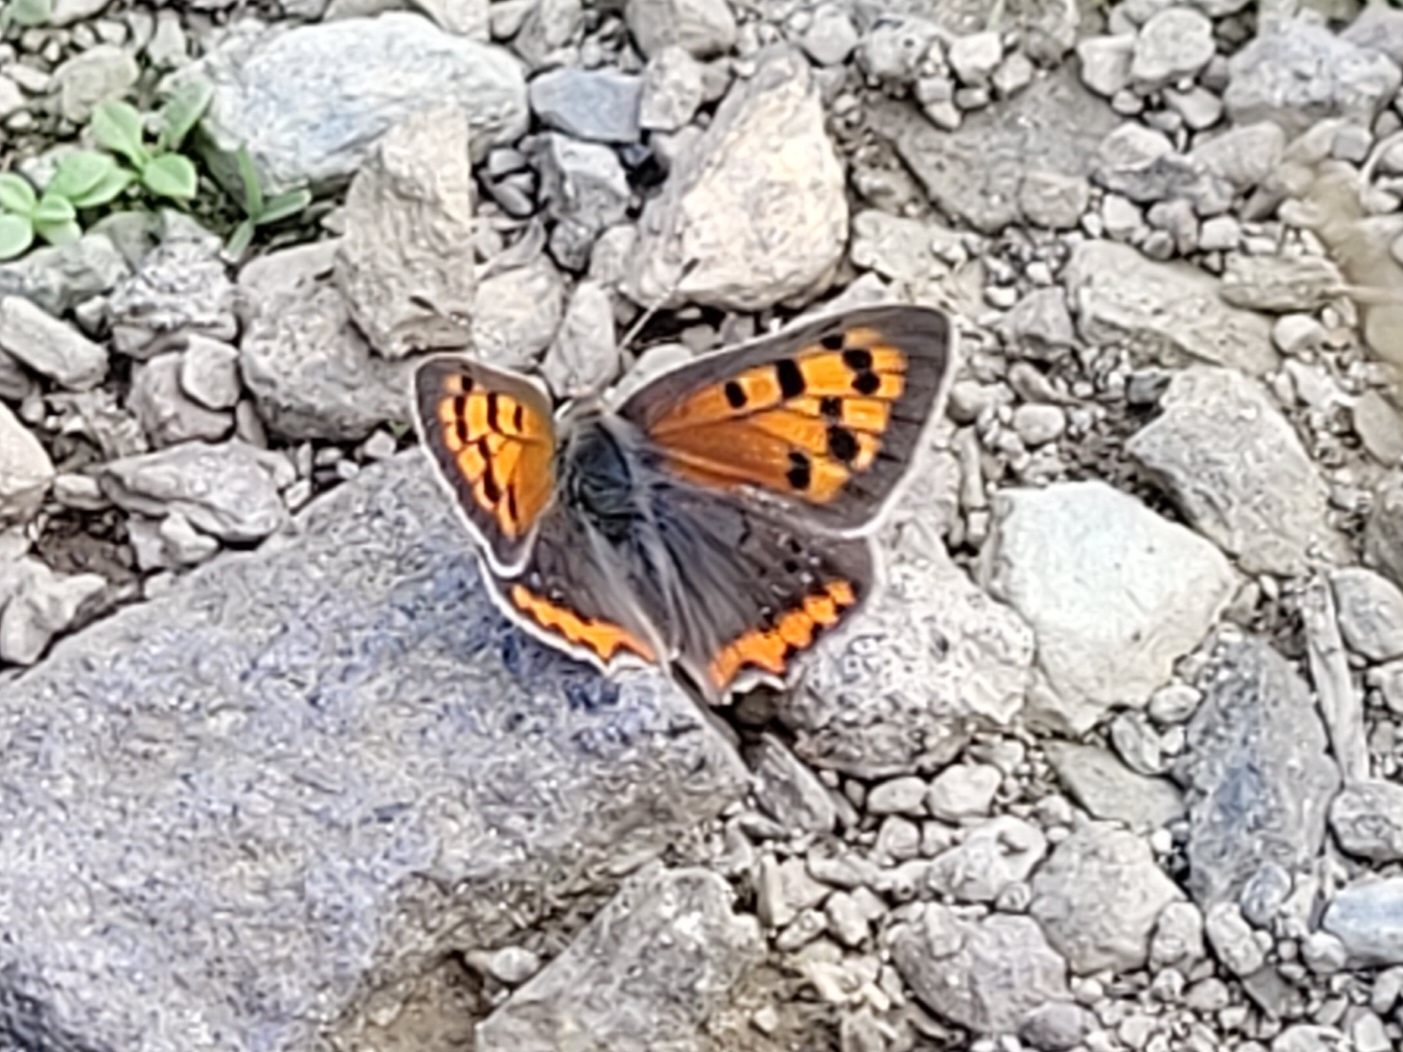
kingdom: Animalia
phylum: Arthropoda
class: Insecta
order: Lepidoptera
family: Lycaenidae
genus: Lycaena
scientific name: Lycaena phlaeas
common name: Small copper
